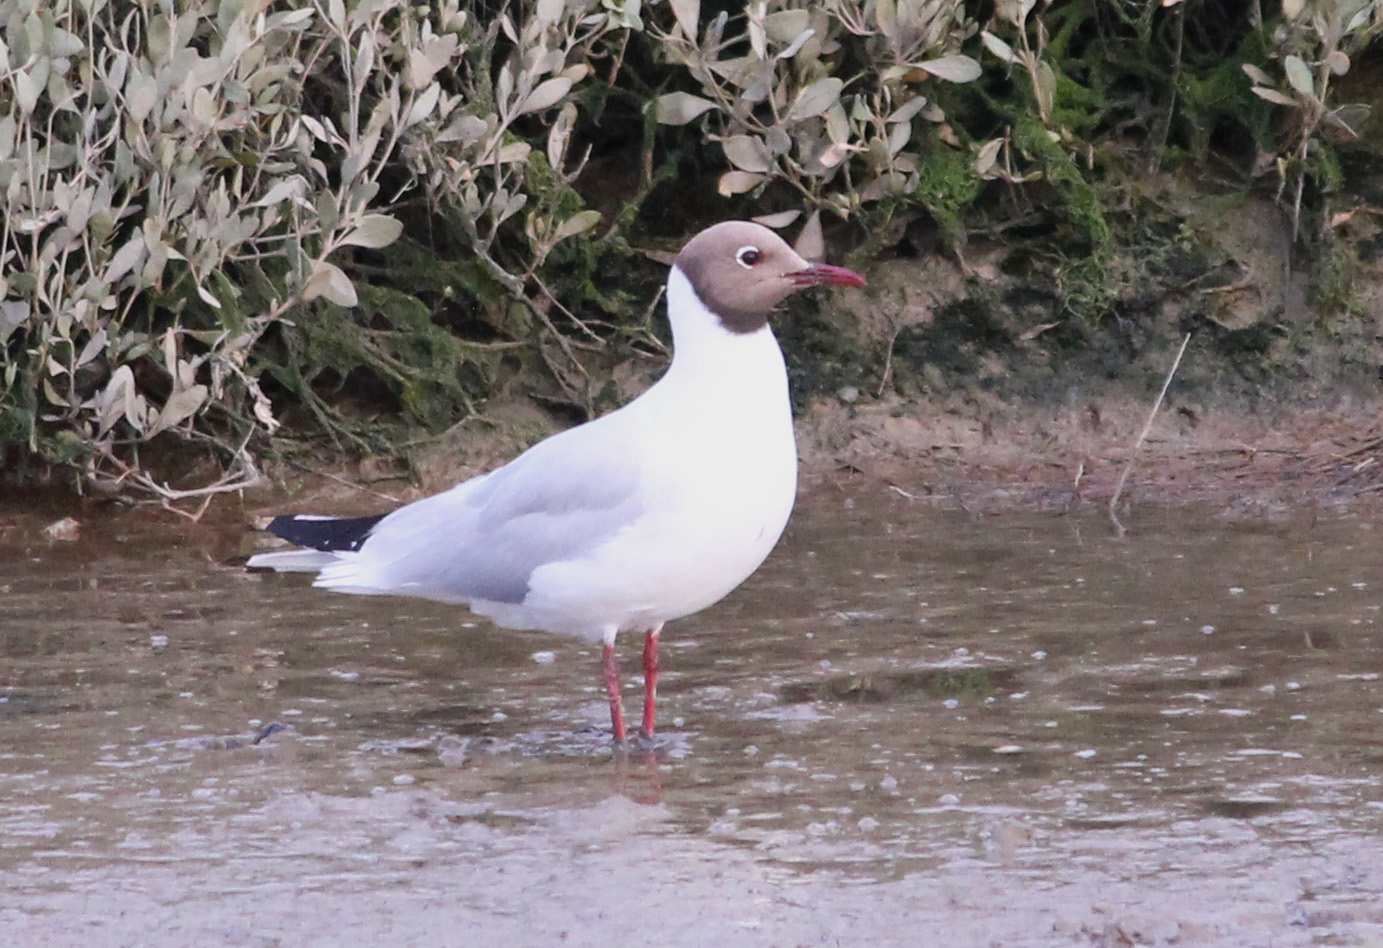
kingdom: Animalia
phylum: Chordata
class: Aves
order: Charadriiformes
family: Laridae
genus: Chroicocephalus
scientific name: Chroicocephalus ridibundus
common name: Black-headed gull
